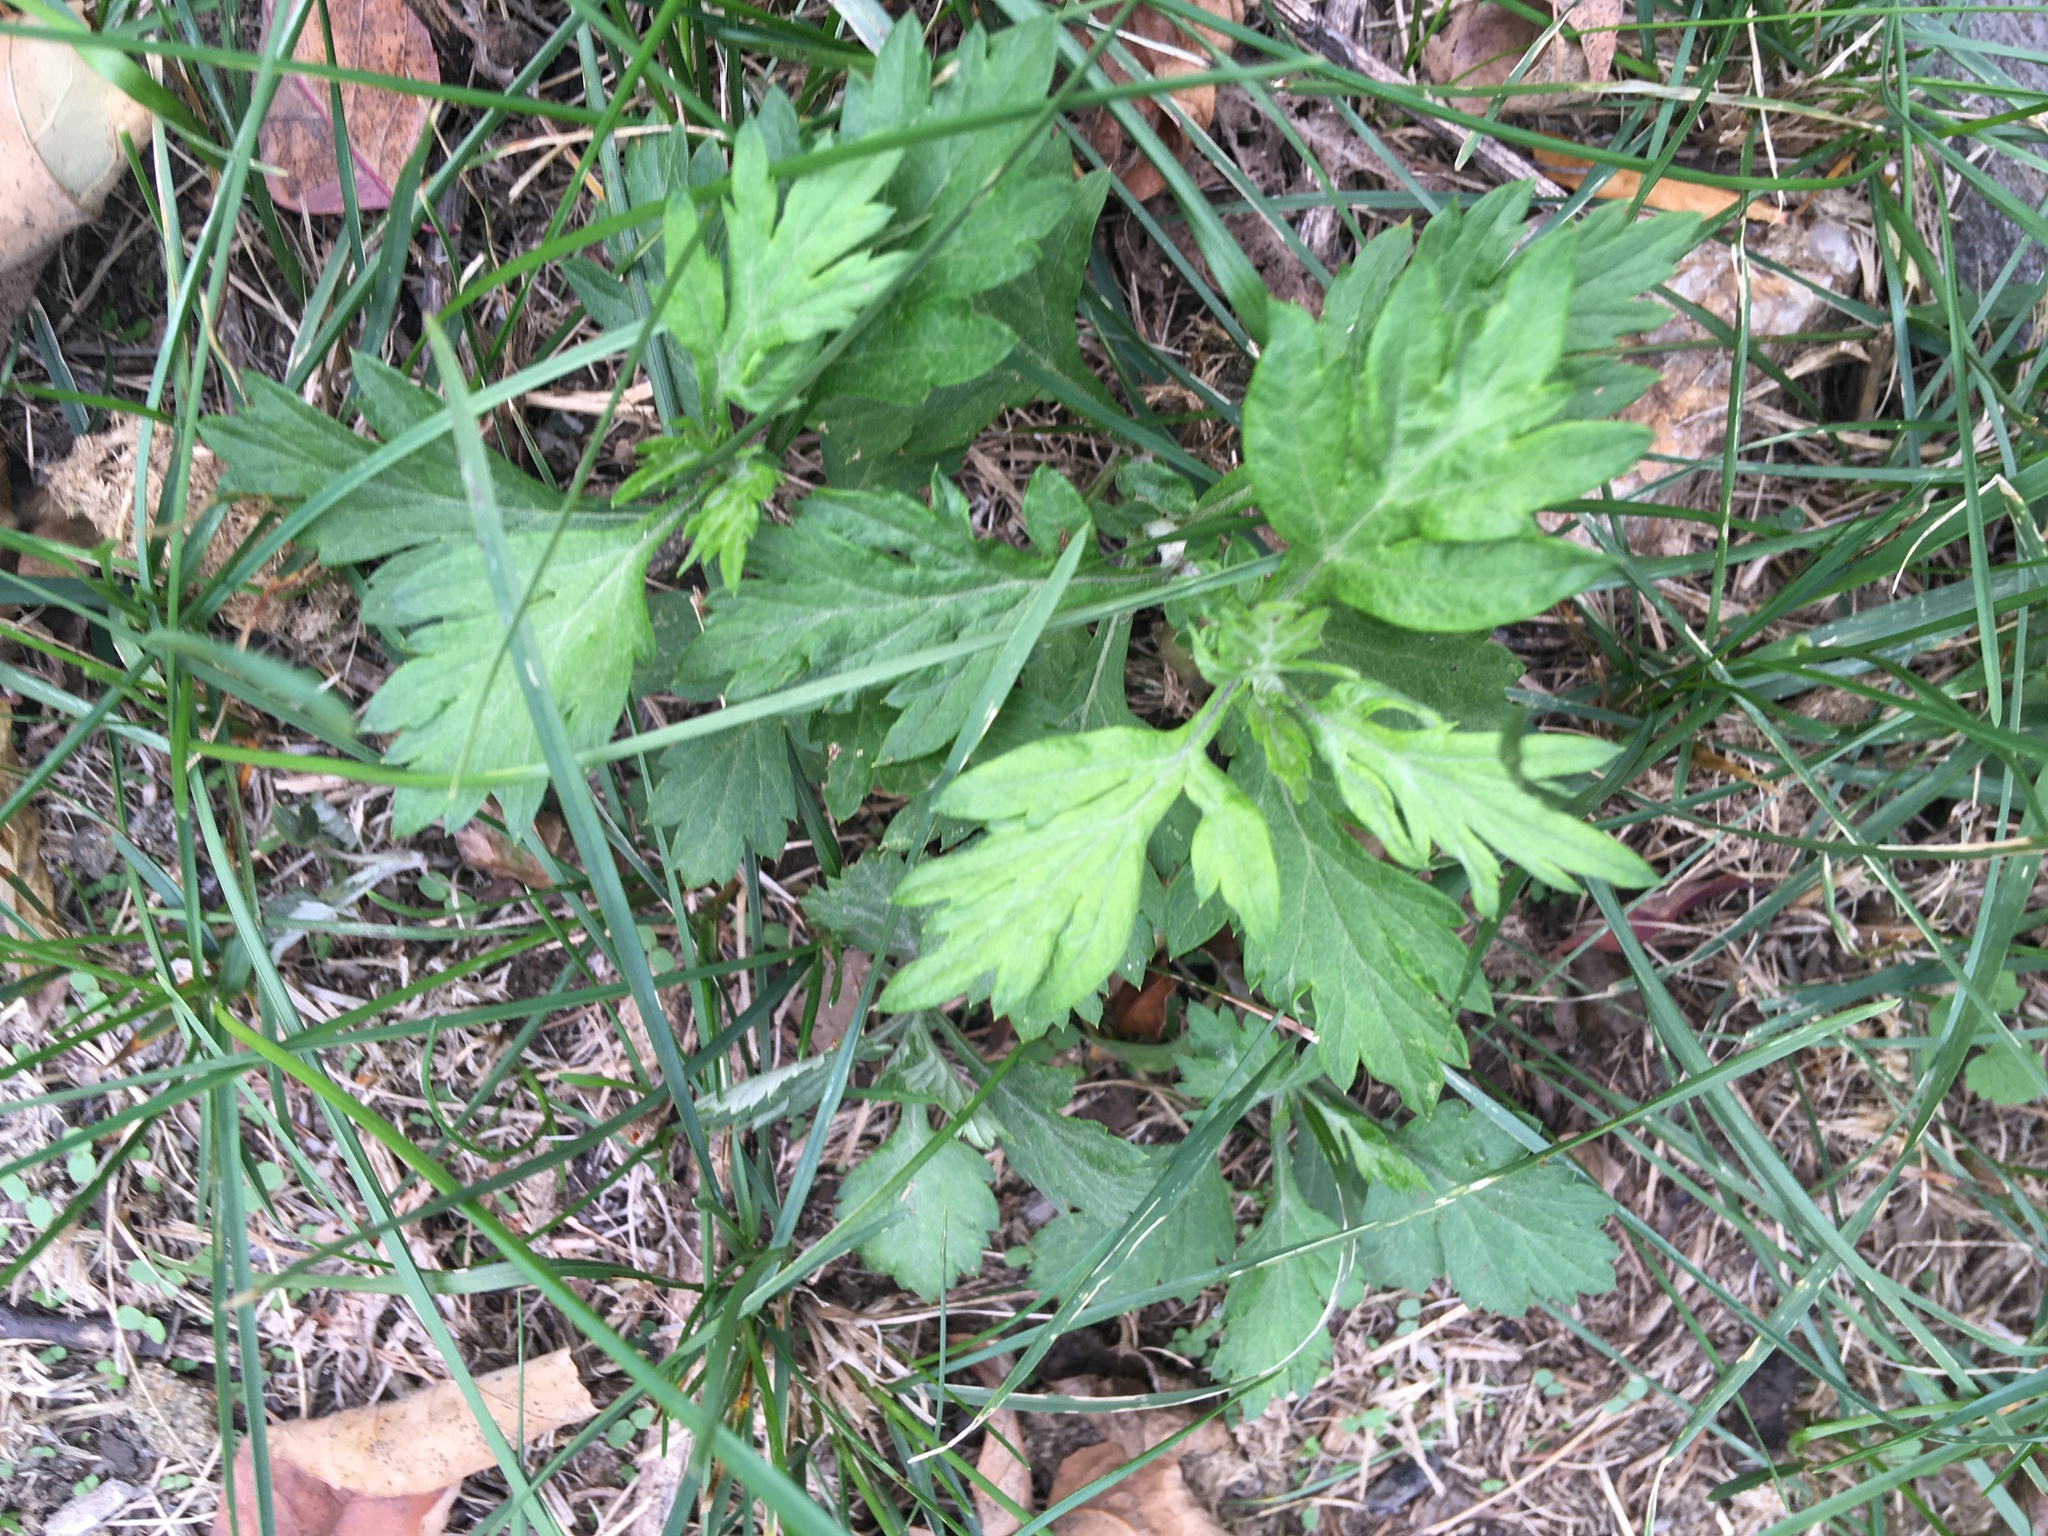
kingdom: Plantae
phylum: Tracheophyta
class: Magnoliopsida
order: Asterales
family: Asteraceae
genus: Artemisia
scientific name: Artemisia vulgaris
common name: Mugwort
